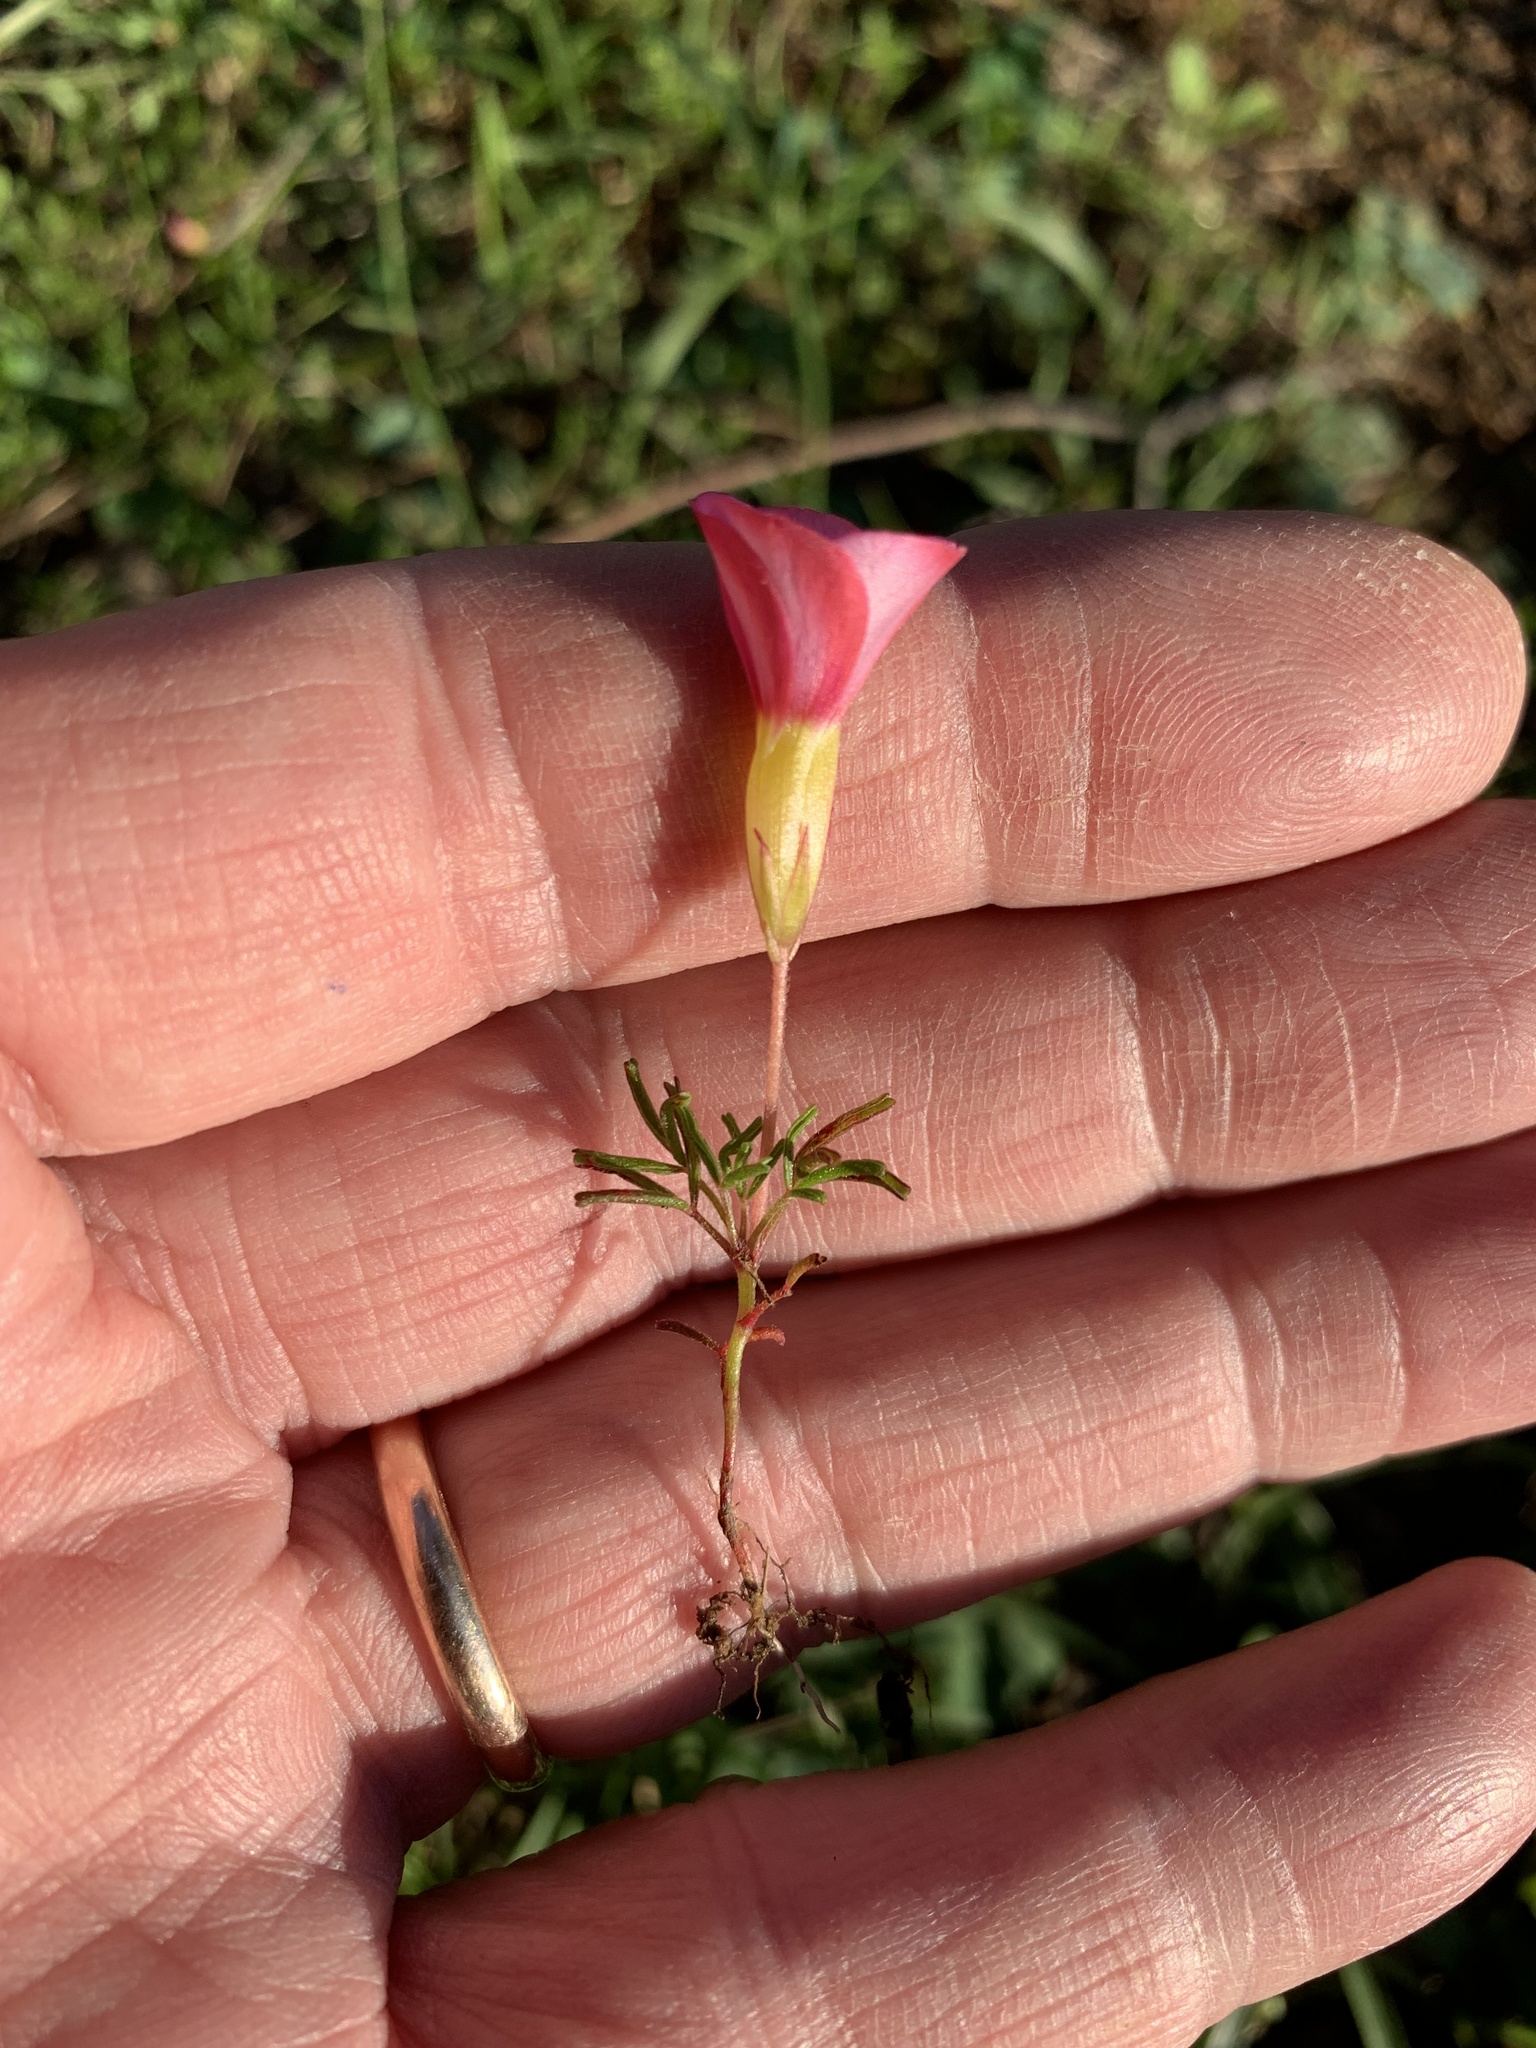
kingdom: Plantae
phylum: Tracheophyta
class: Magnoliopsida
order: Oxalidales
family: Oxalidaceae
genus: Oxalis
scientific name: Oxalis glabra
